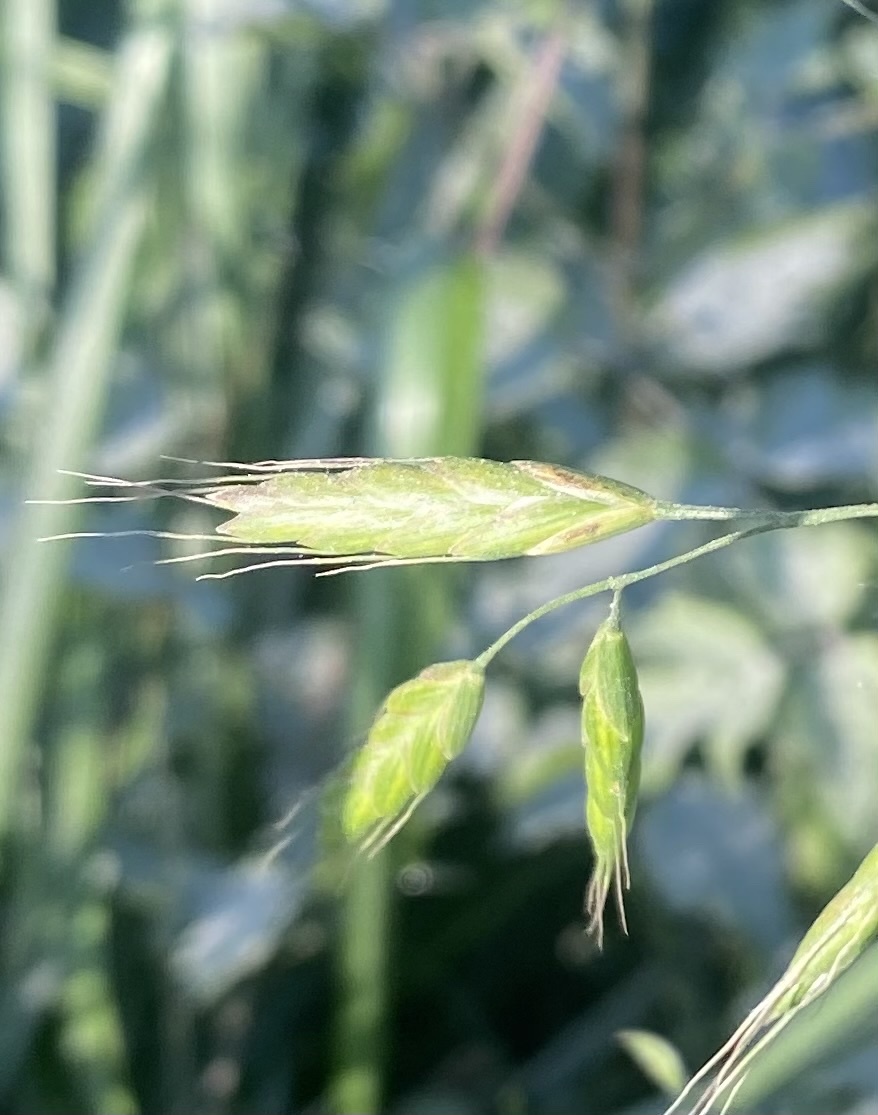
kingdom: Plantae
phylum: Tracheophyta
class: Liliopsida
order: Poales
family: Poaceae
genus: Bromus
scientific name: Bromus squarrosus
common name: Corn brome
